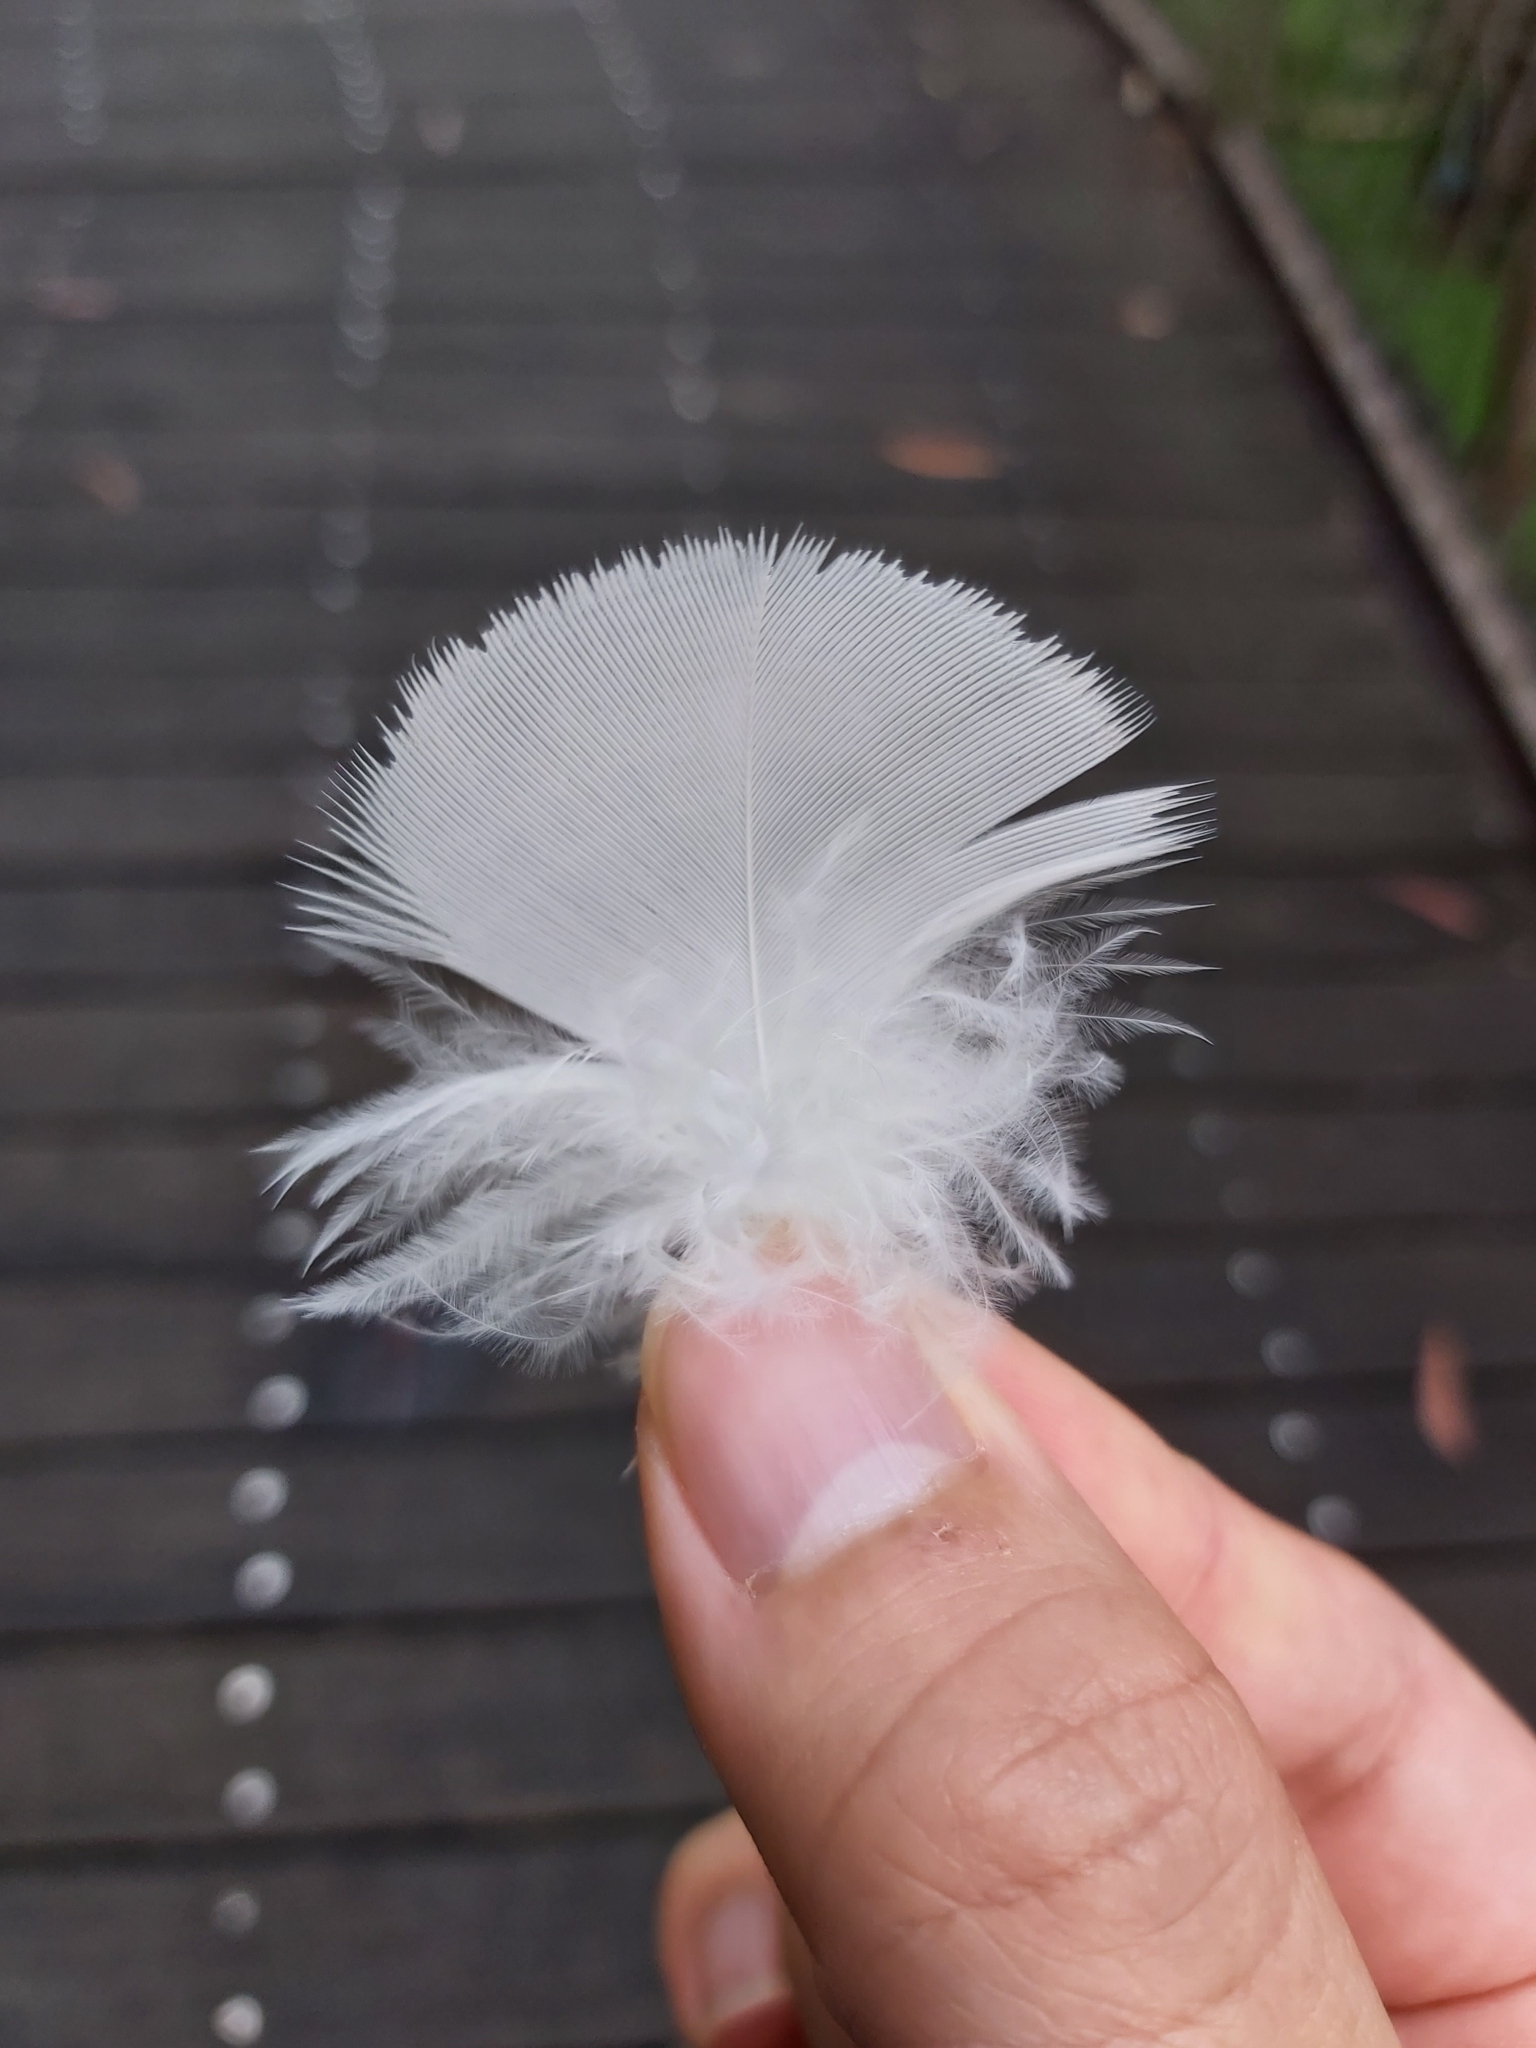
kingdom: Animalia
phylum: Chordata
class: Aves
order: Psittaciformes
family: Psittacidae
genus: Cacatua
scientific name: Cacatua galerita
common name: Sulphur-crested cockatoo
